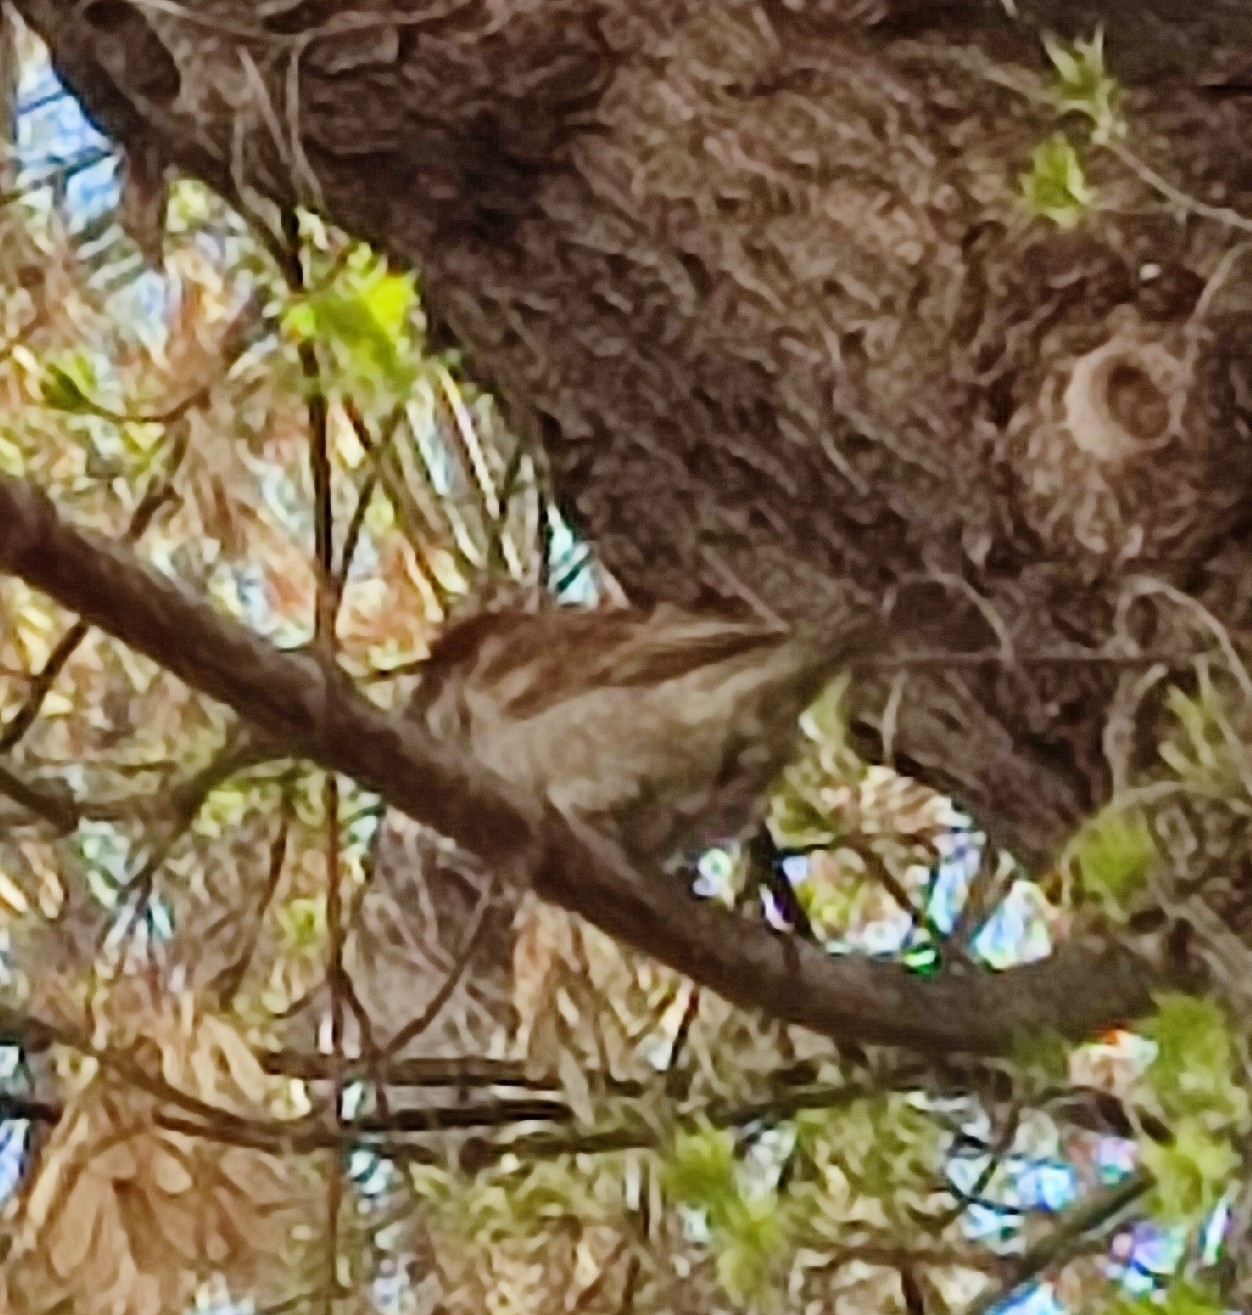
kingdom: Animalia
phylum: Chordata
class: Aves
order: Passeriformes
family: Passeridae
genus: Passer
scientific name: Passer domesticus
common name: House sparrow
